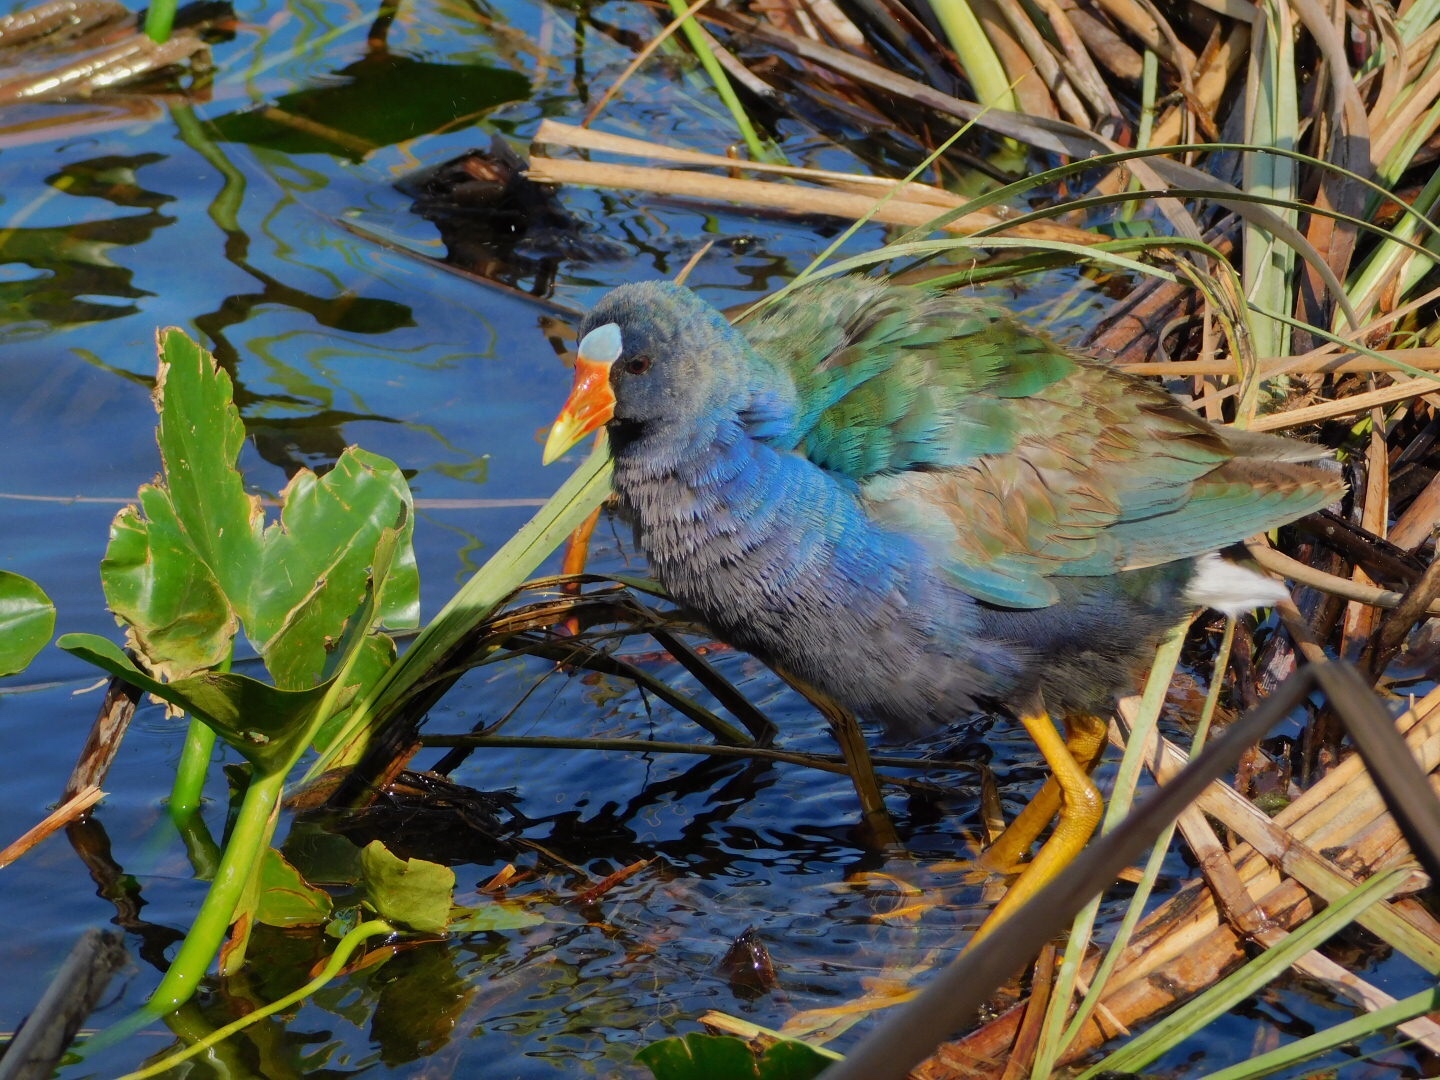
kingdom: Animalia
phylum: Chordata
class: Aves
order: Gruiformes
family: Rallidae
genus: Porphyrio
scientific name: Porphyrio martinica
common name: Purple gallinule
